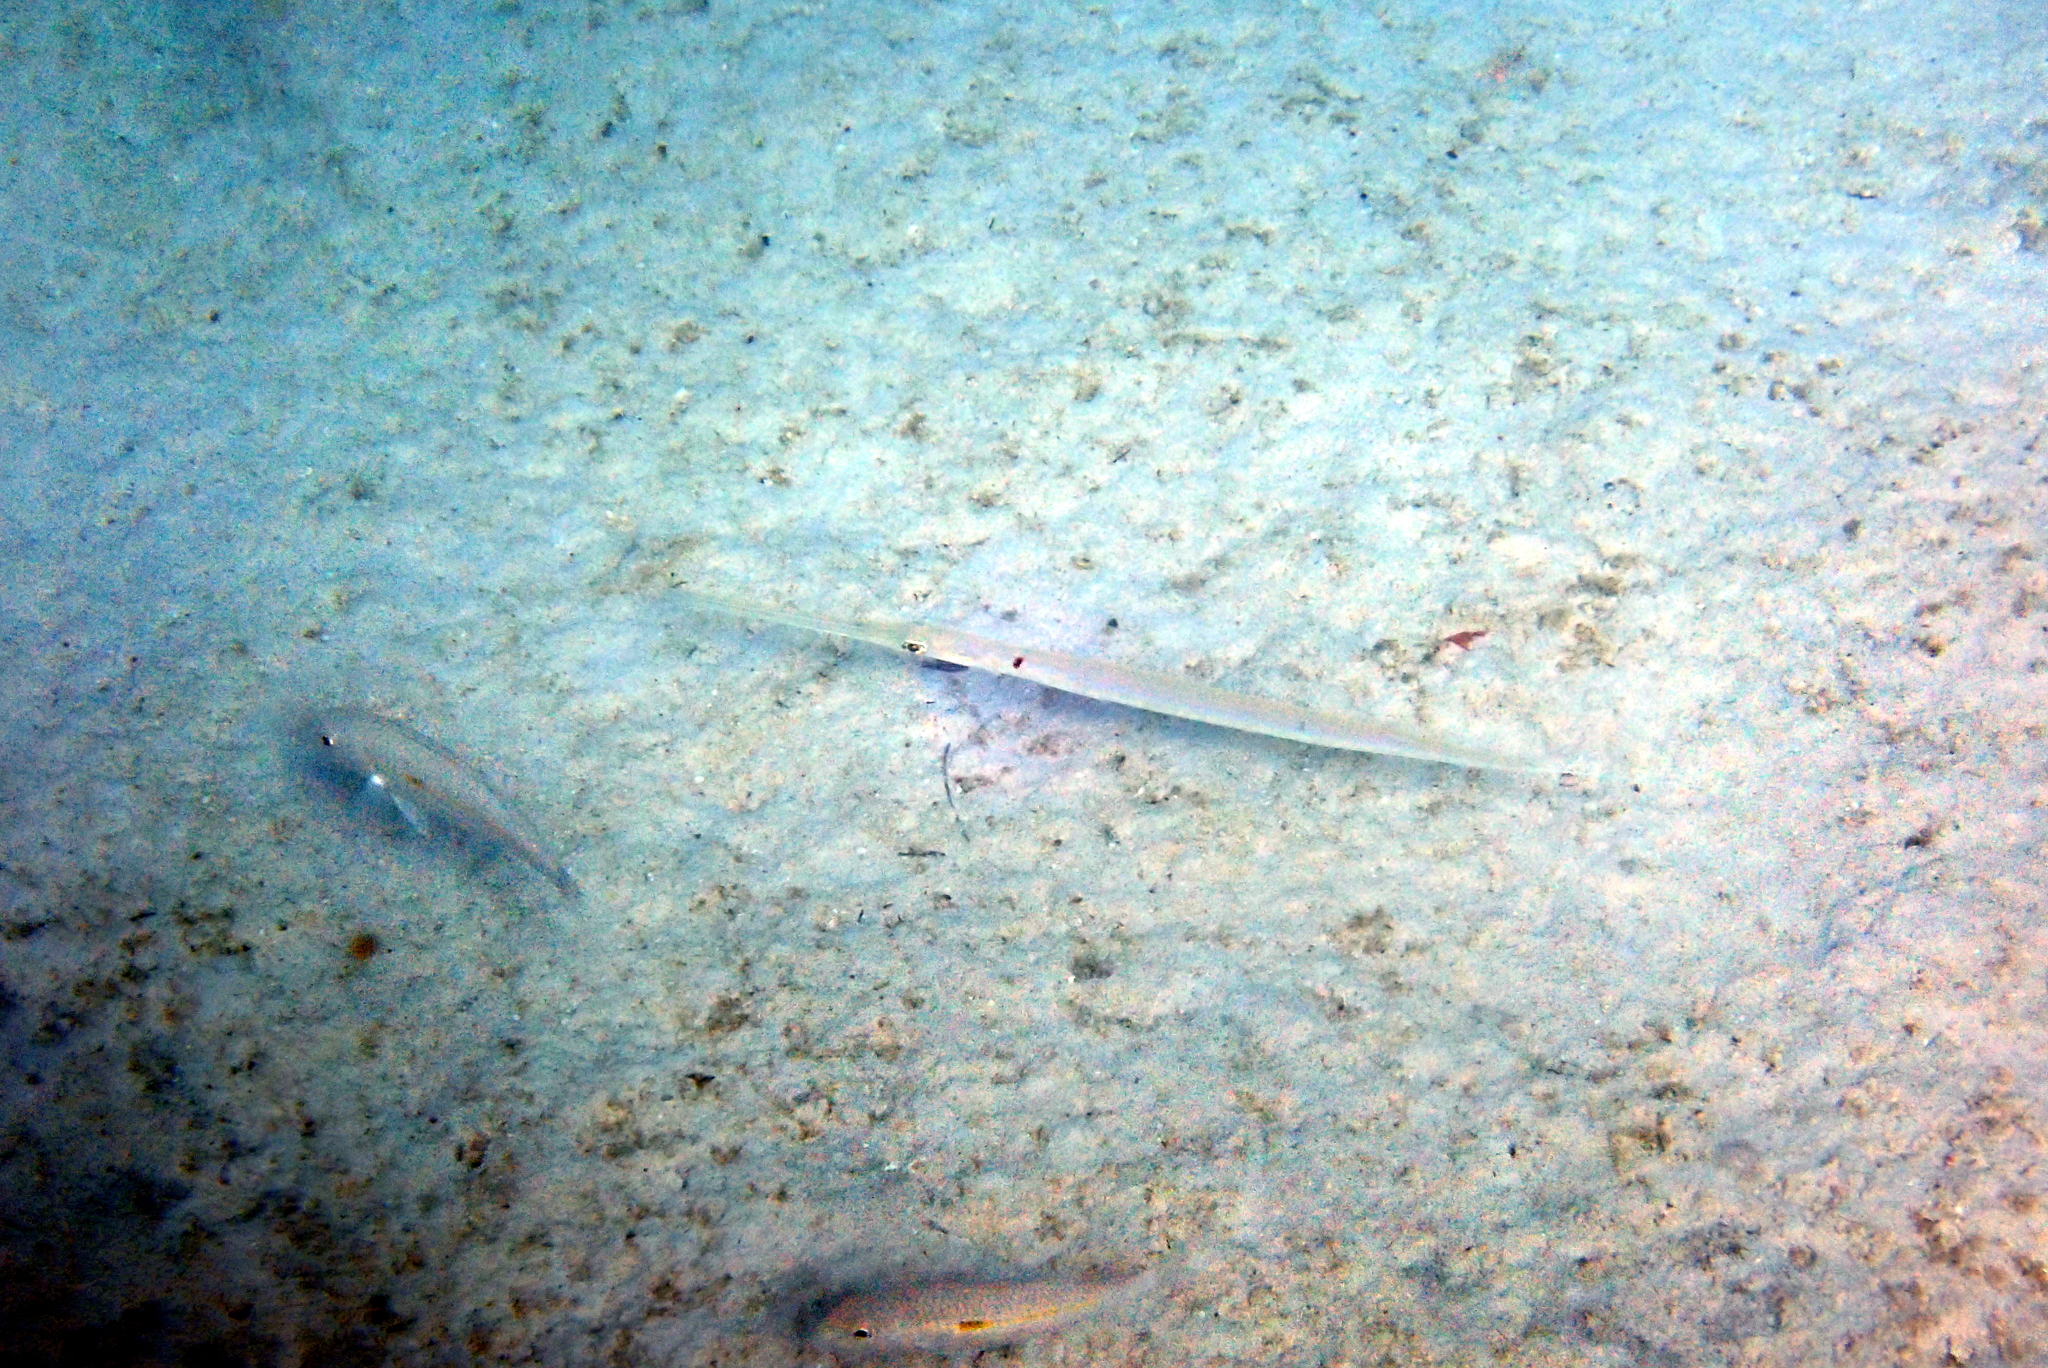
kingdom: Animalia
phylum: Chordata
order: Syngnathiformes
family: Fistulariidae
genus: Fistularia
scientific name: Fistularia commersonii
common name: Bluespotted cornetfish
